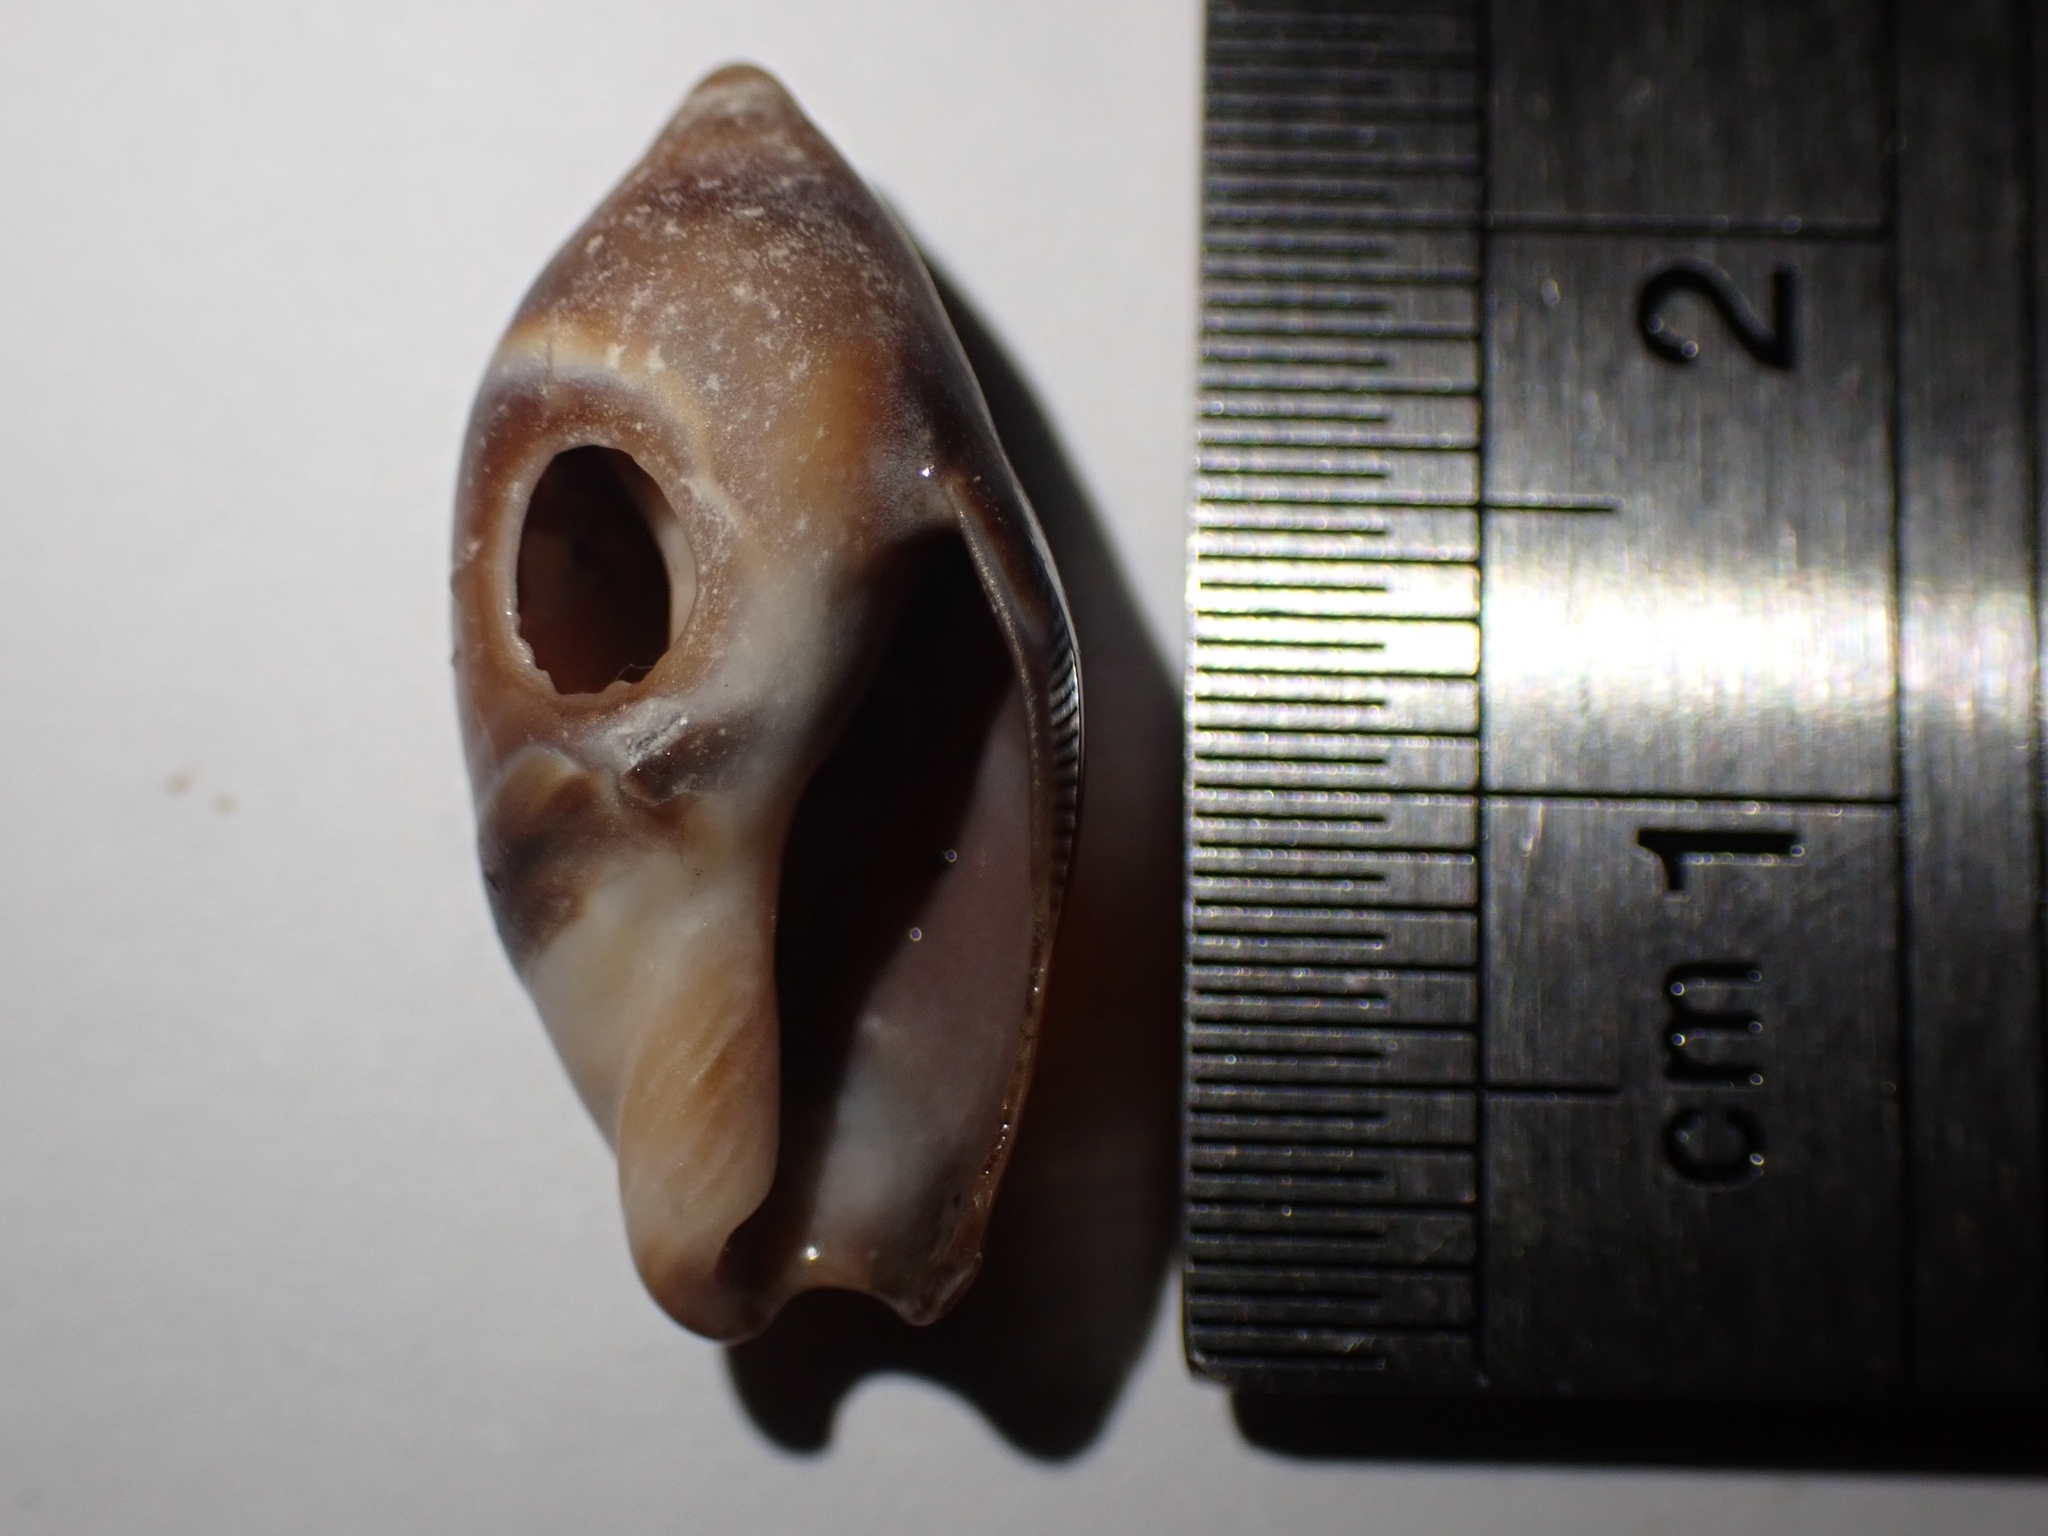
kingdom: Animalia
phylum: Mollusca
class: Gastropoda
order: Neogastropoda
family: Ancillariidae
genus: Amalda
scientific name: Amalda australis
